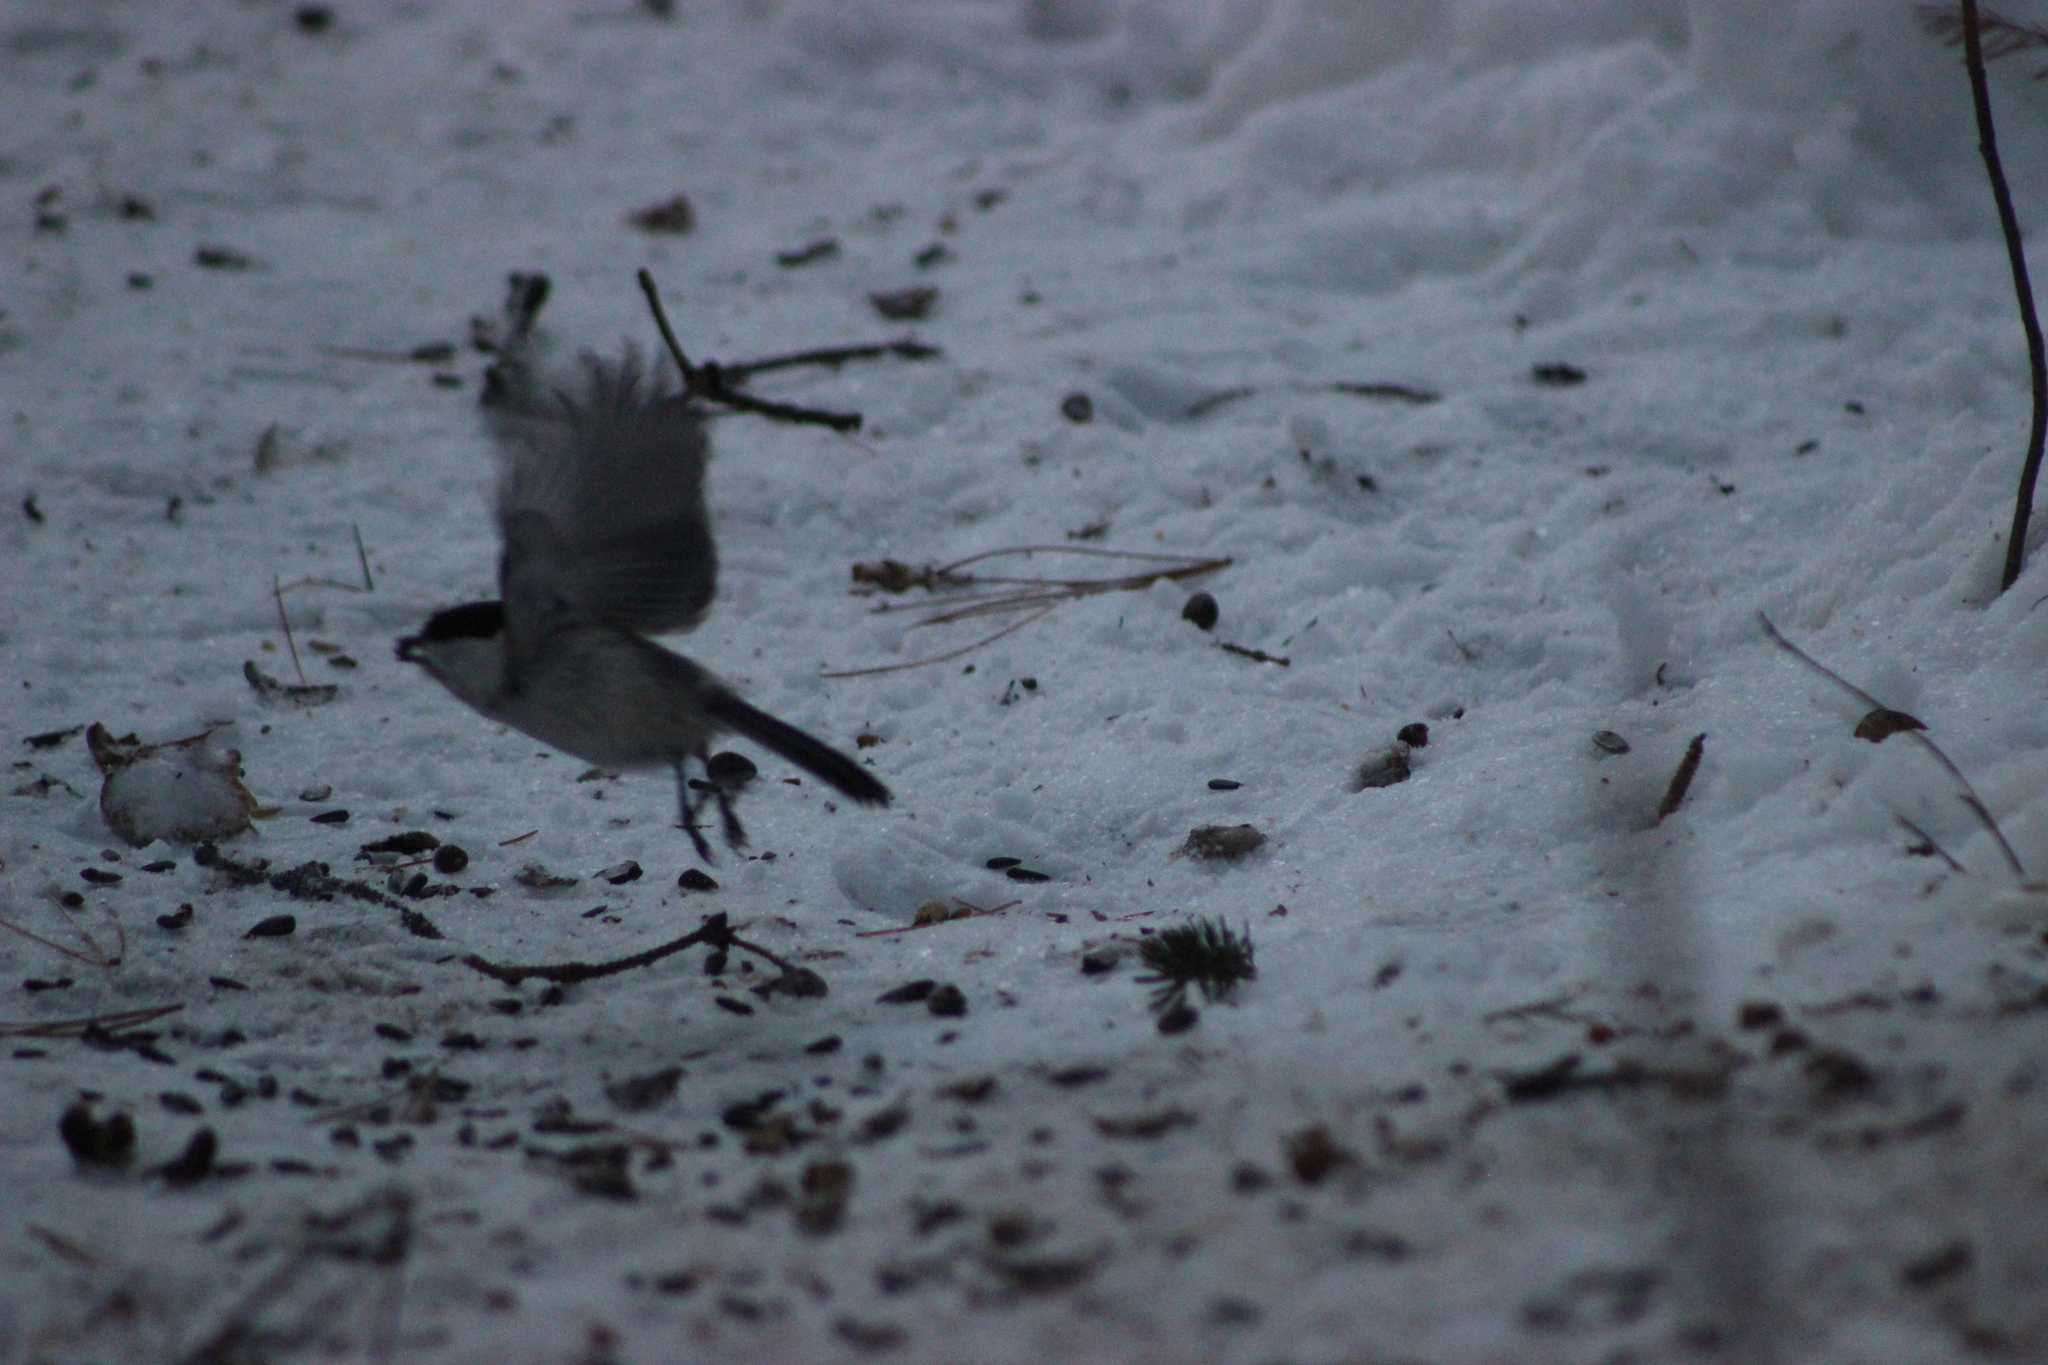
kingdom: Animalia
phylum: Chordata
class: Aves
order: Passeriformes
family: Paridae
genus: Poecile
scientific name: Poecile montanus
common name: Willow tit
